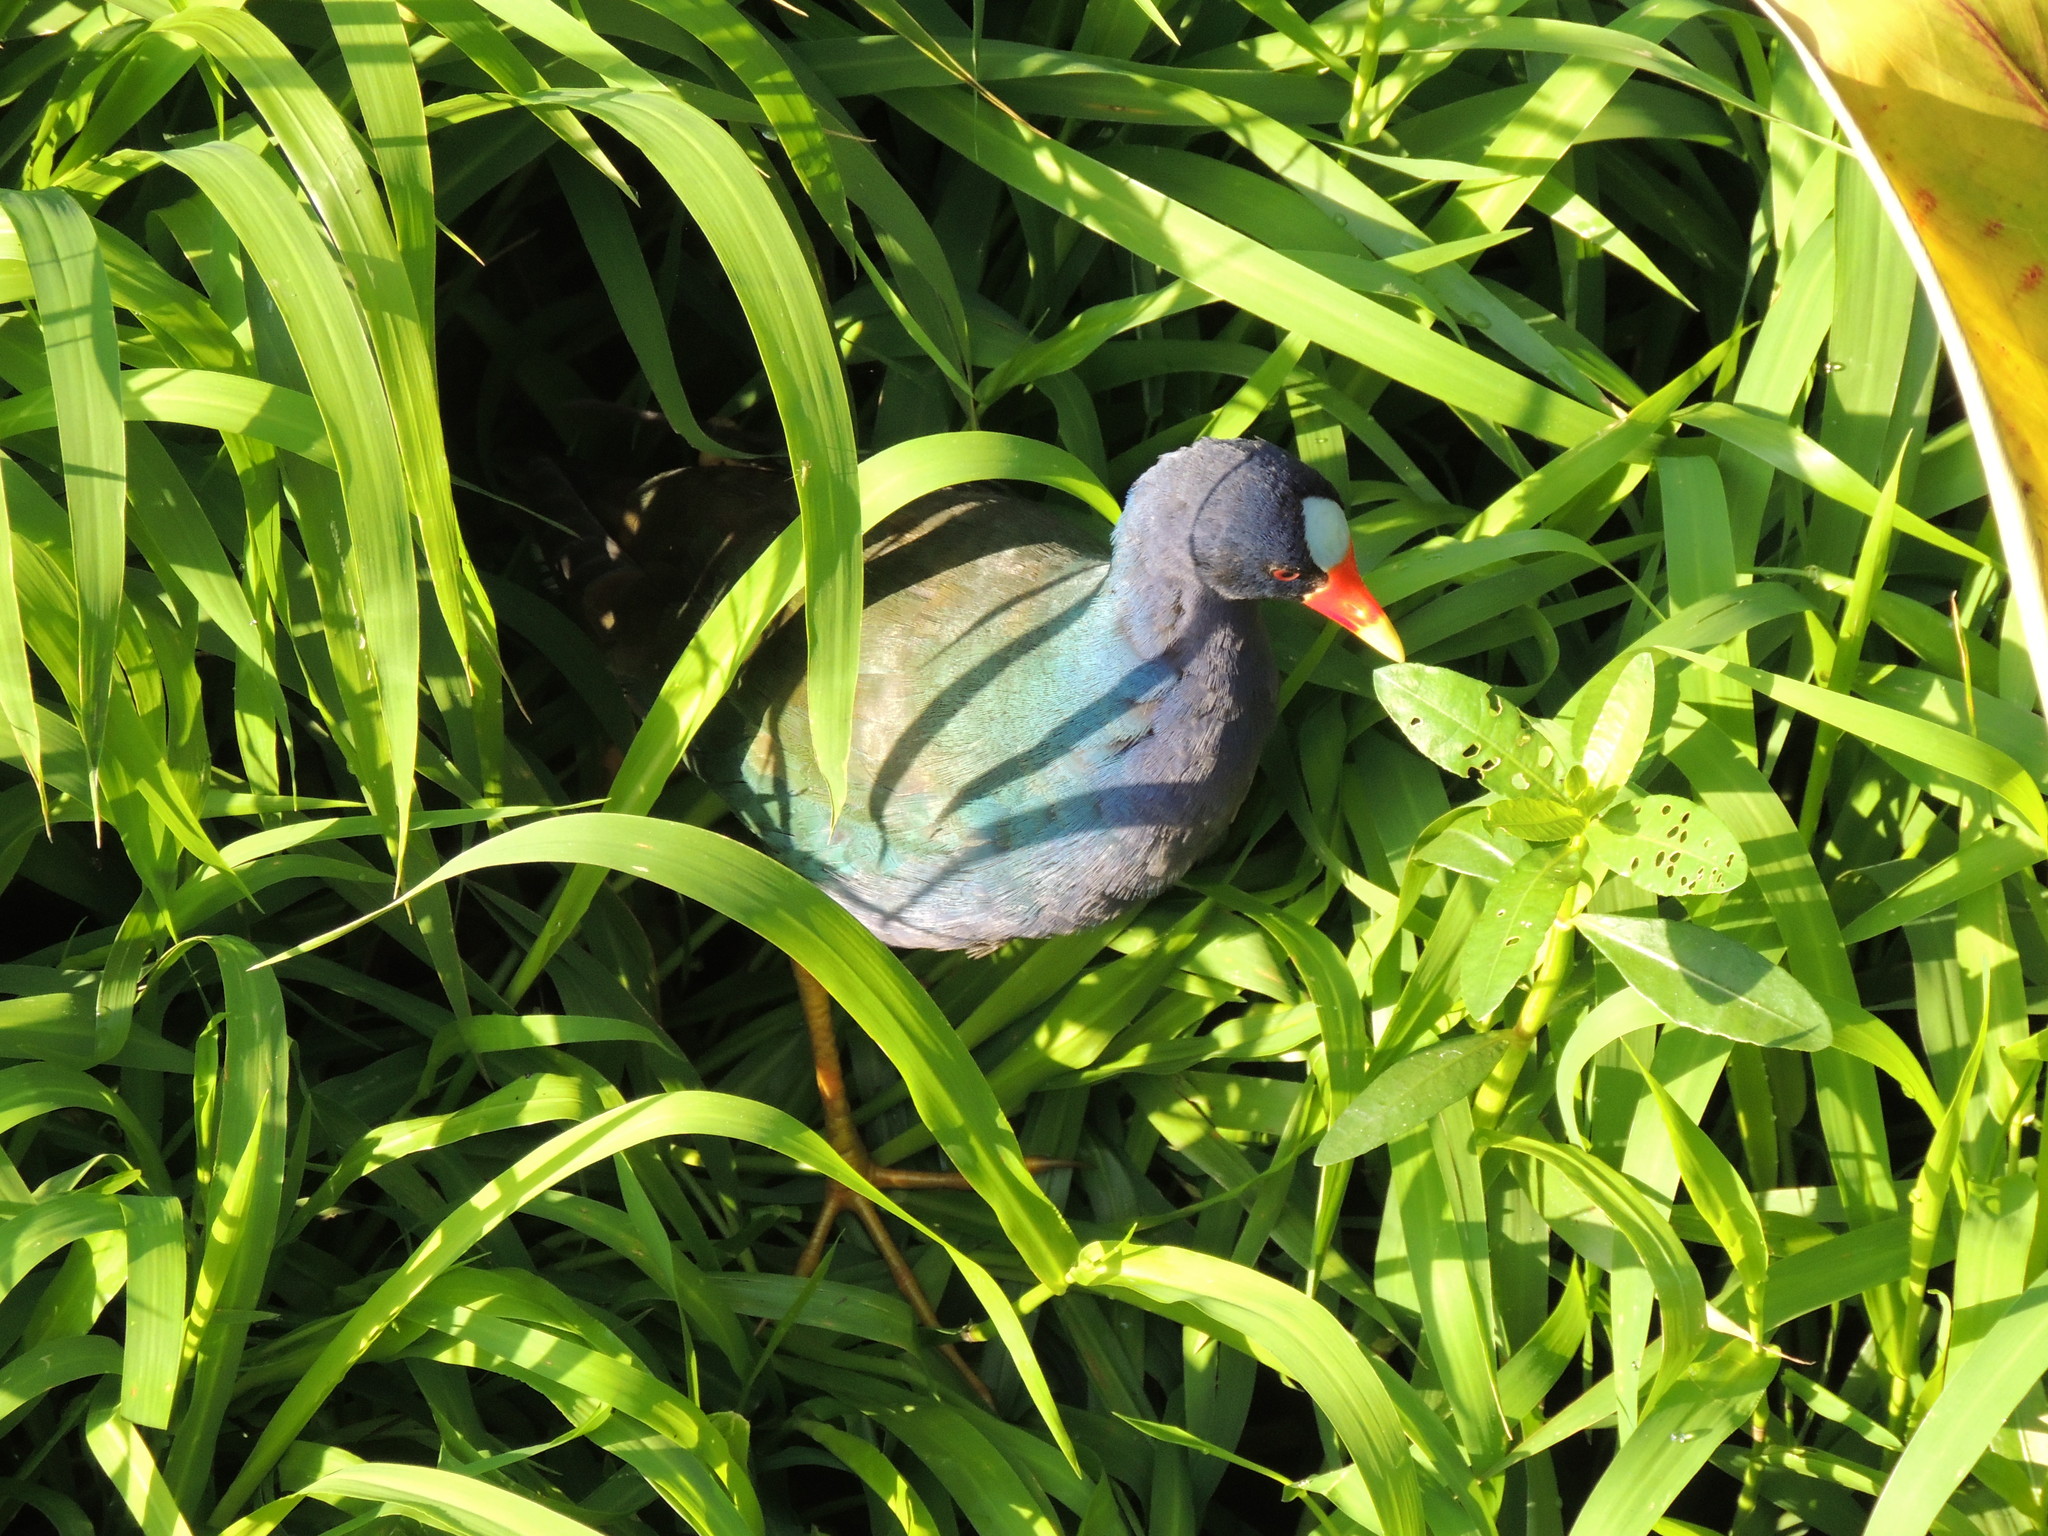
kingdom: Animalia
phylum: Chordata
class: Aves
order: Gruiformes
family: Rallidae
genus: Porphyrio
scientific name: Porphyrio martinica
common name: Purple gallinule
